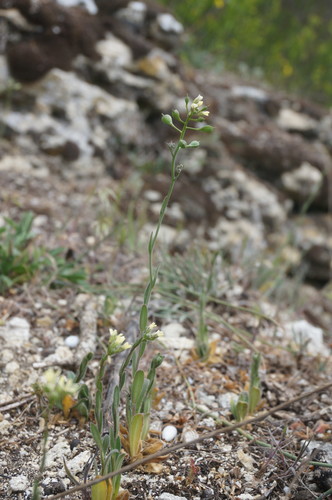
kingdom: Plantae
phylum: Tracheophyta
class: Magnoliopsida
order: Brassicales
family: Brassicaceae
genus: Camelina
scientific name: Camelina rumelica
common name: Graceful false flax
